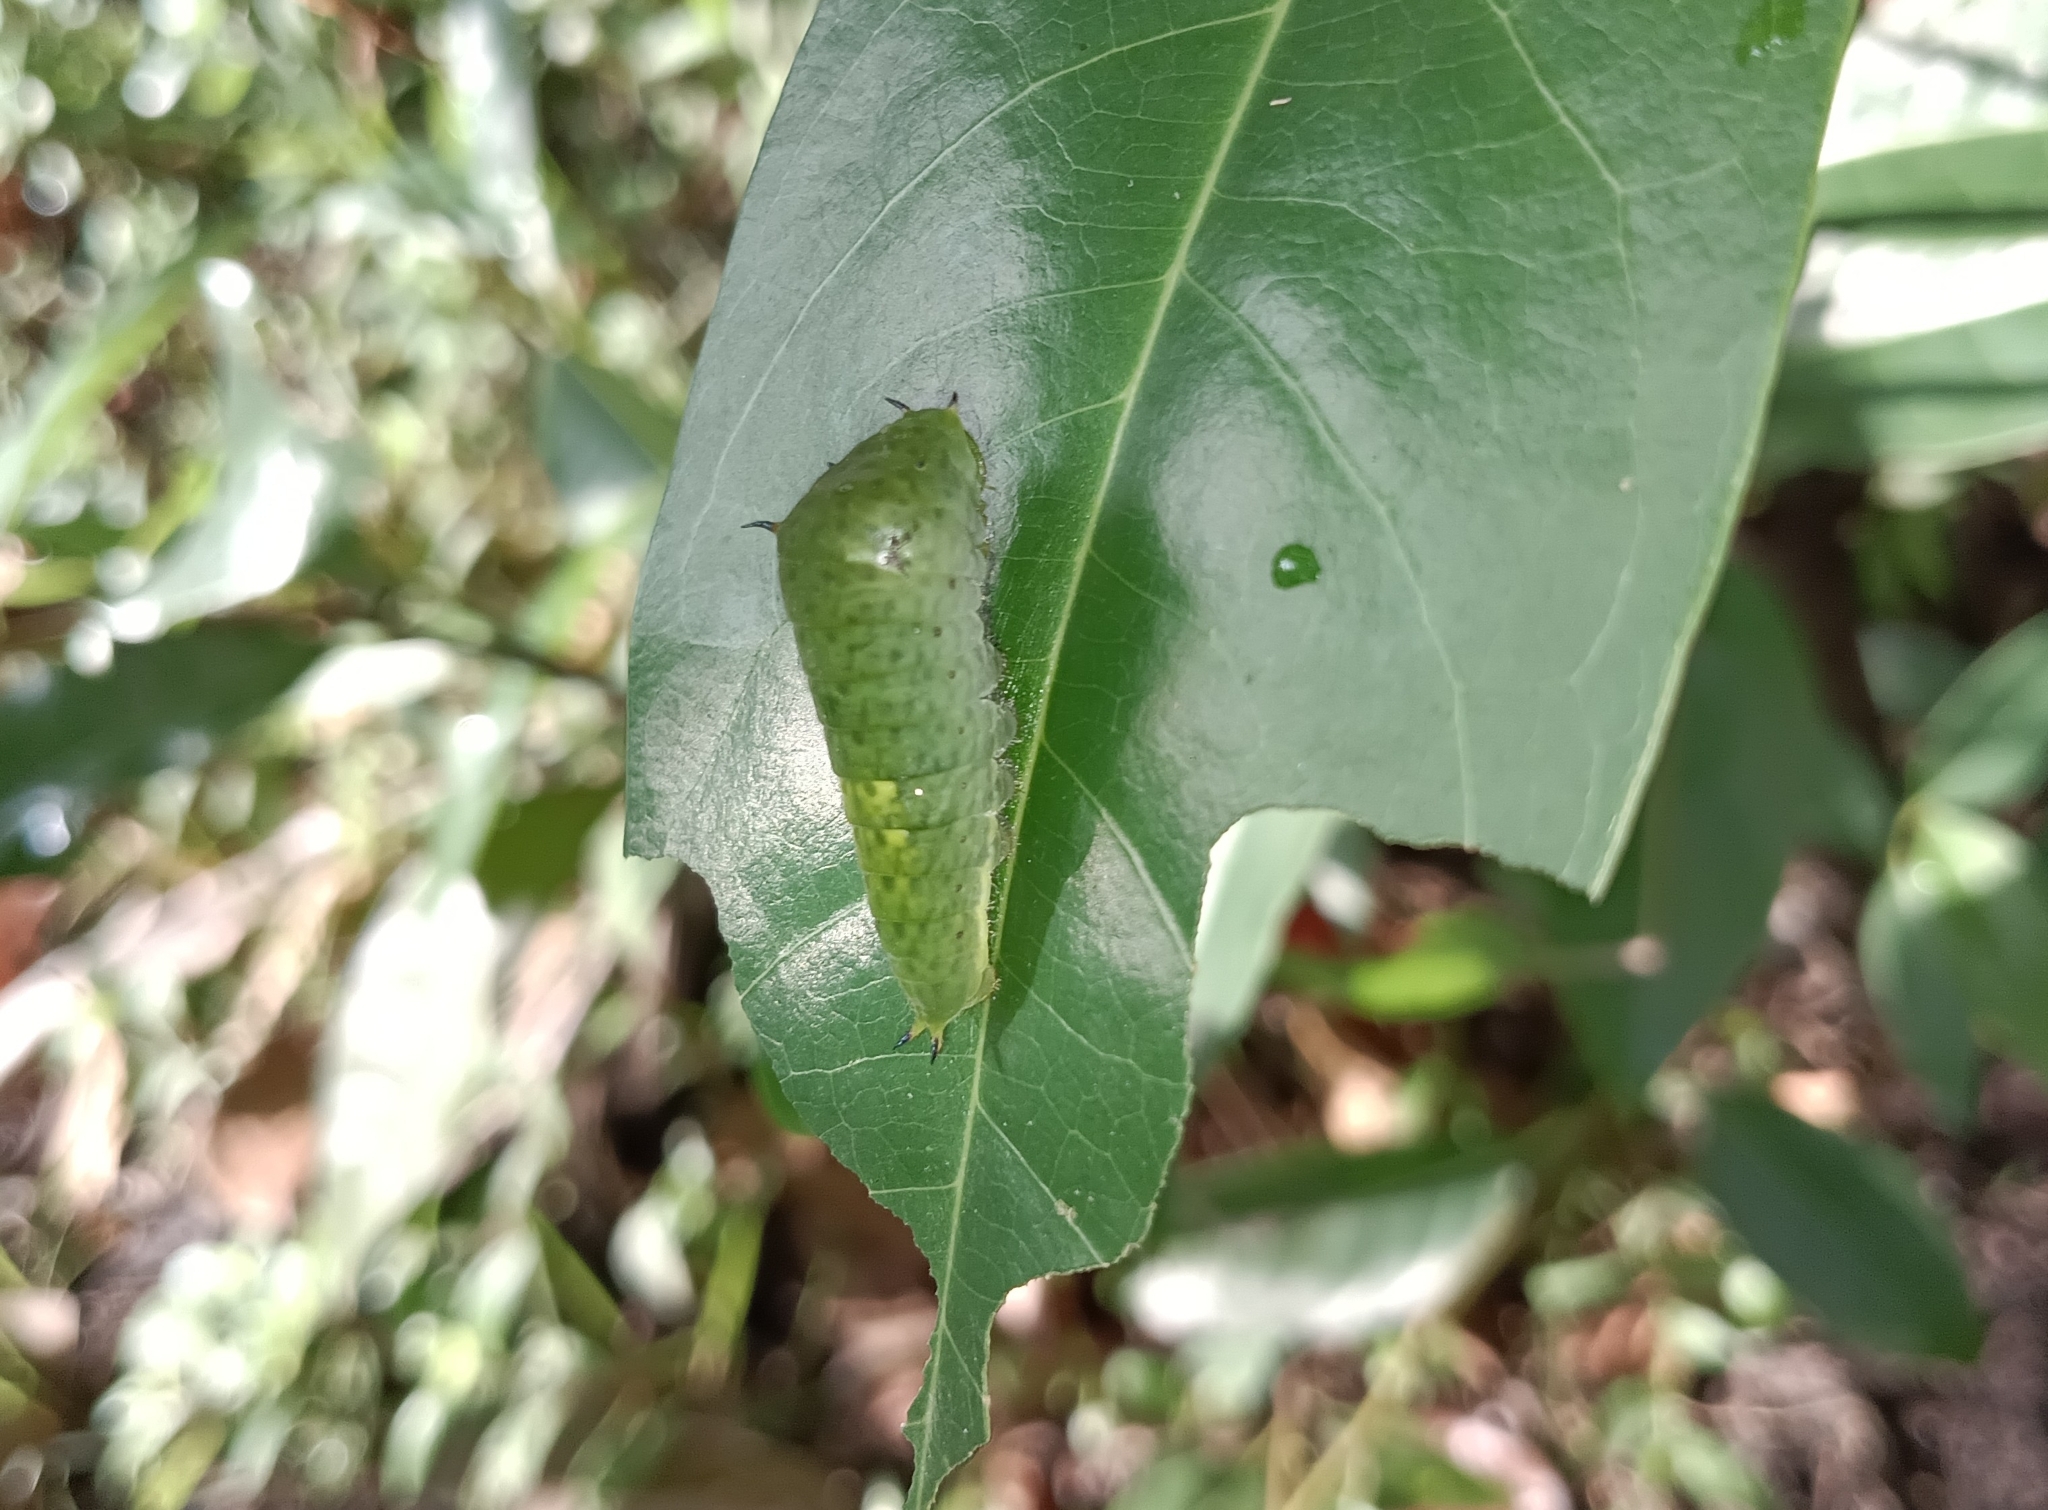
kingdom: Animalia
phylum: Arthropoda
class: Insecta
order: Lepidoptera
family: Papilionidae
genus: Graphium
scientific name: Graphium agamemnon
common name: Tailed jay
